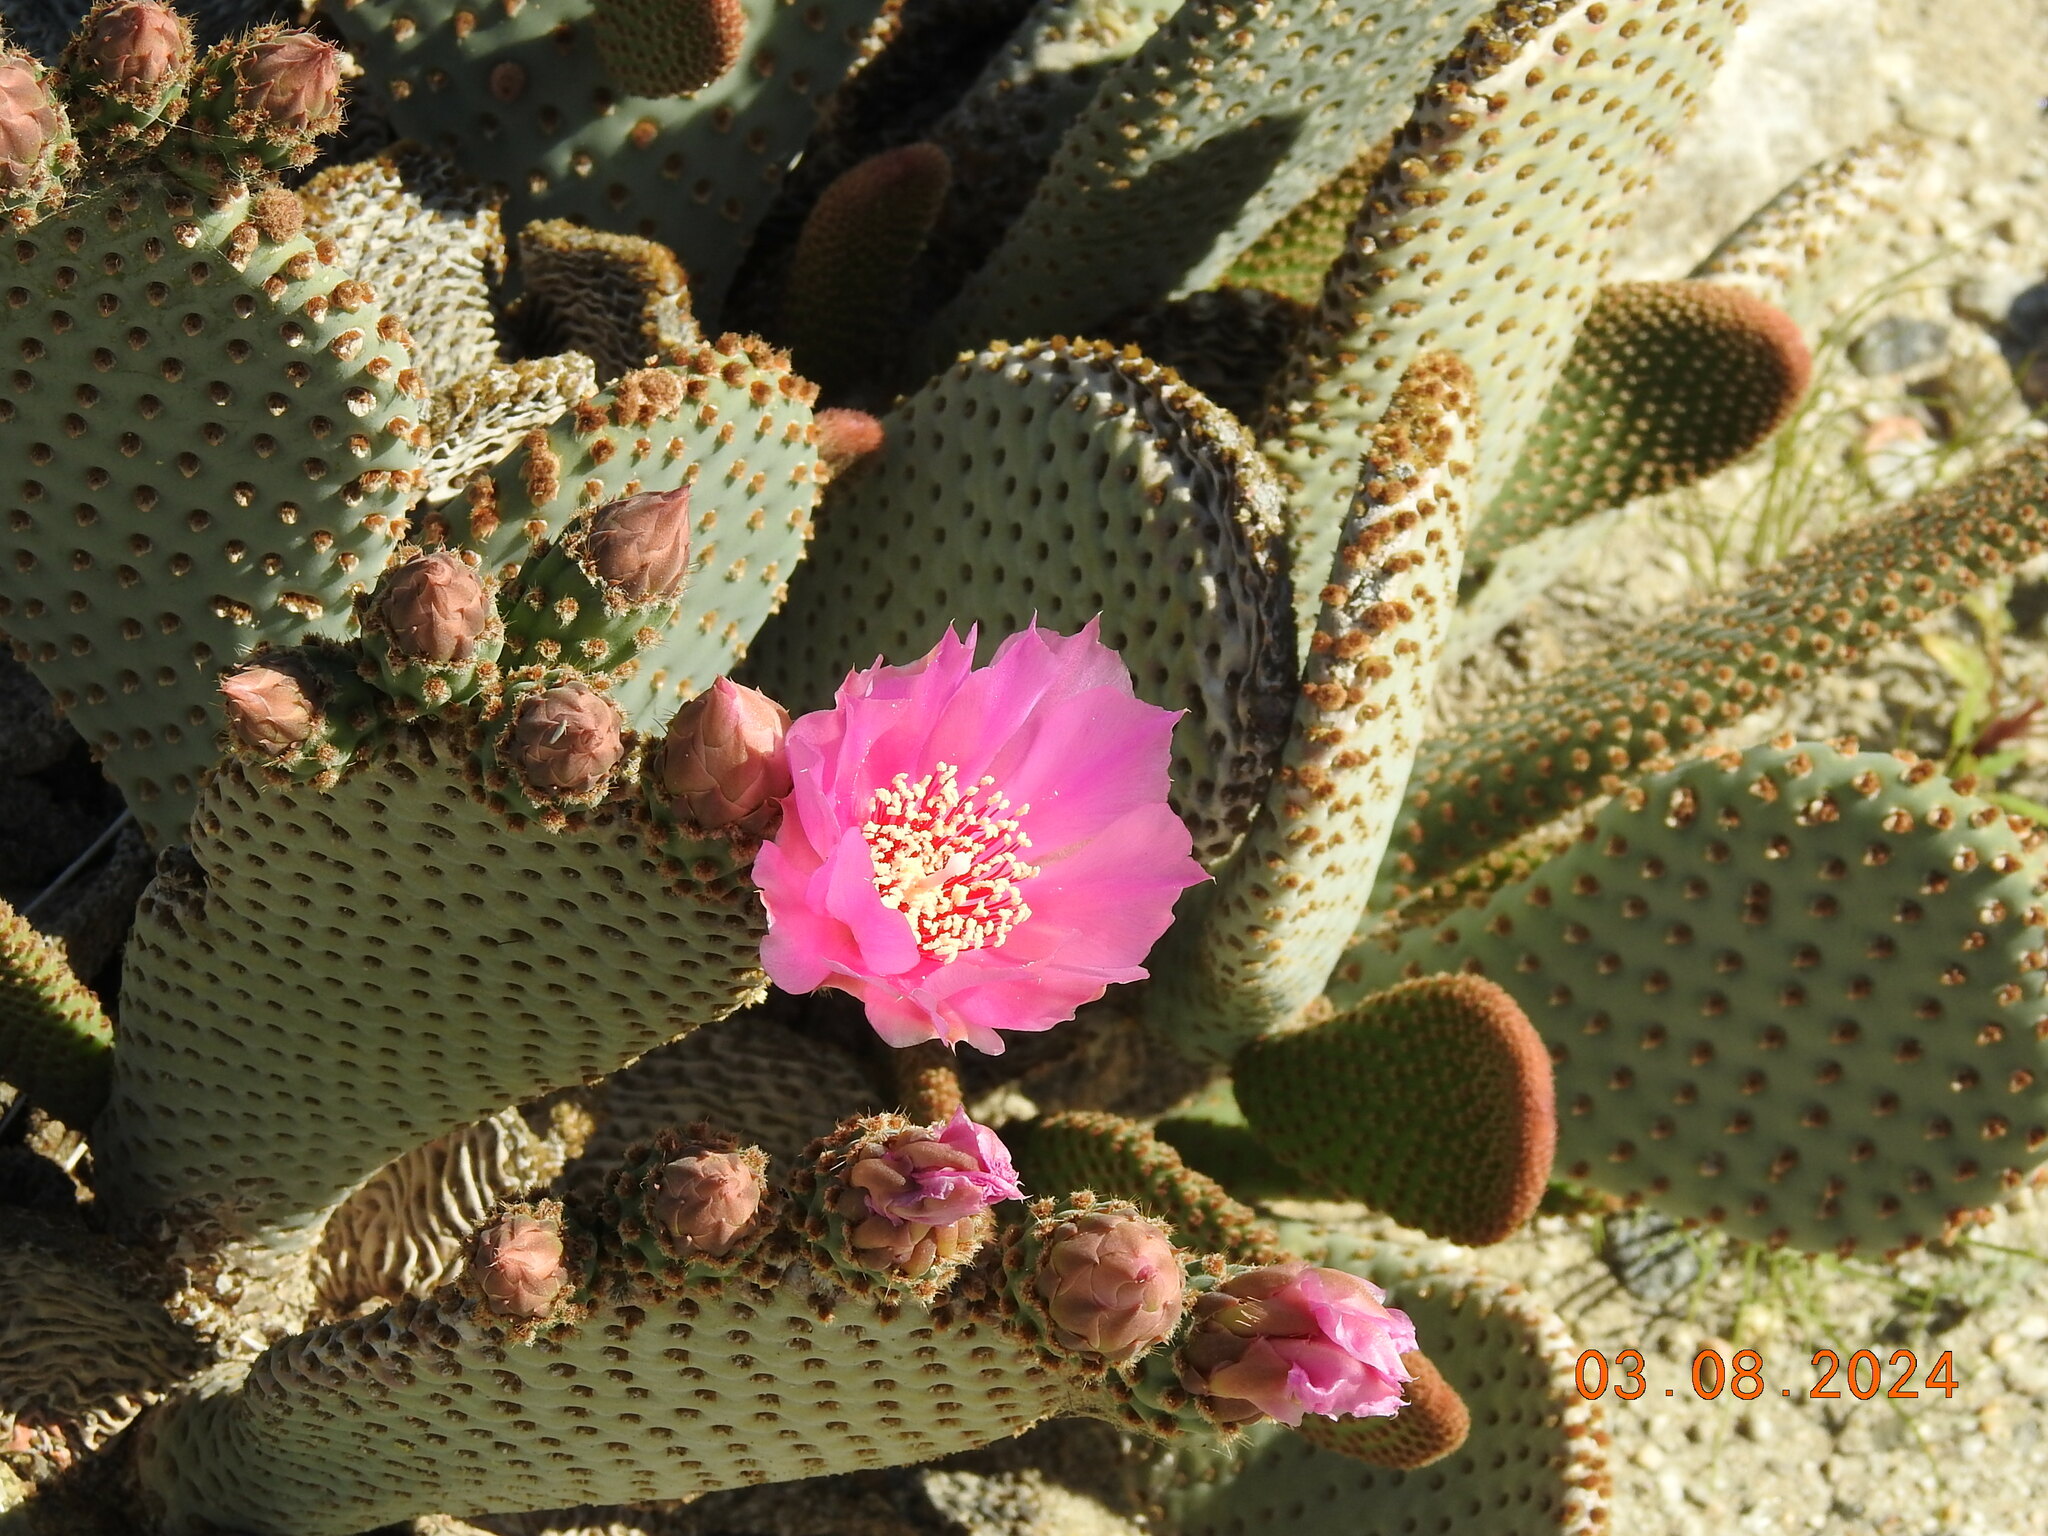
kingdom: Plantae
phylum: Tracheophyta
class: Magnoliopsida
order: Caryophyllales
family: Cactaceae
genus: Opuntia
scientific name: Opuntia basilaris
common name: Beavertail prickly-pear
